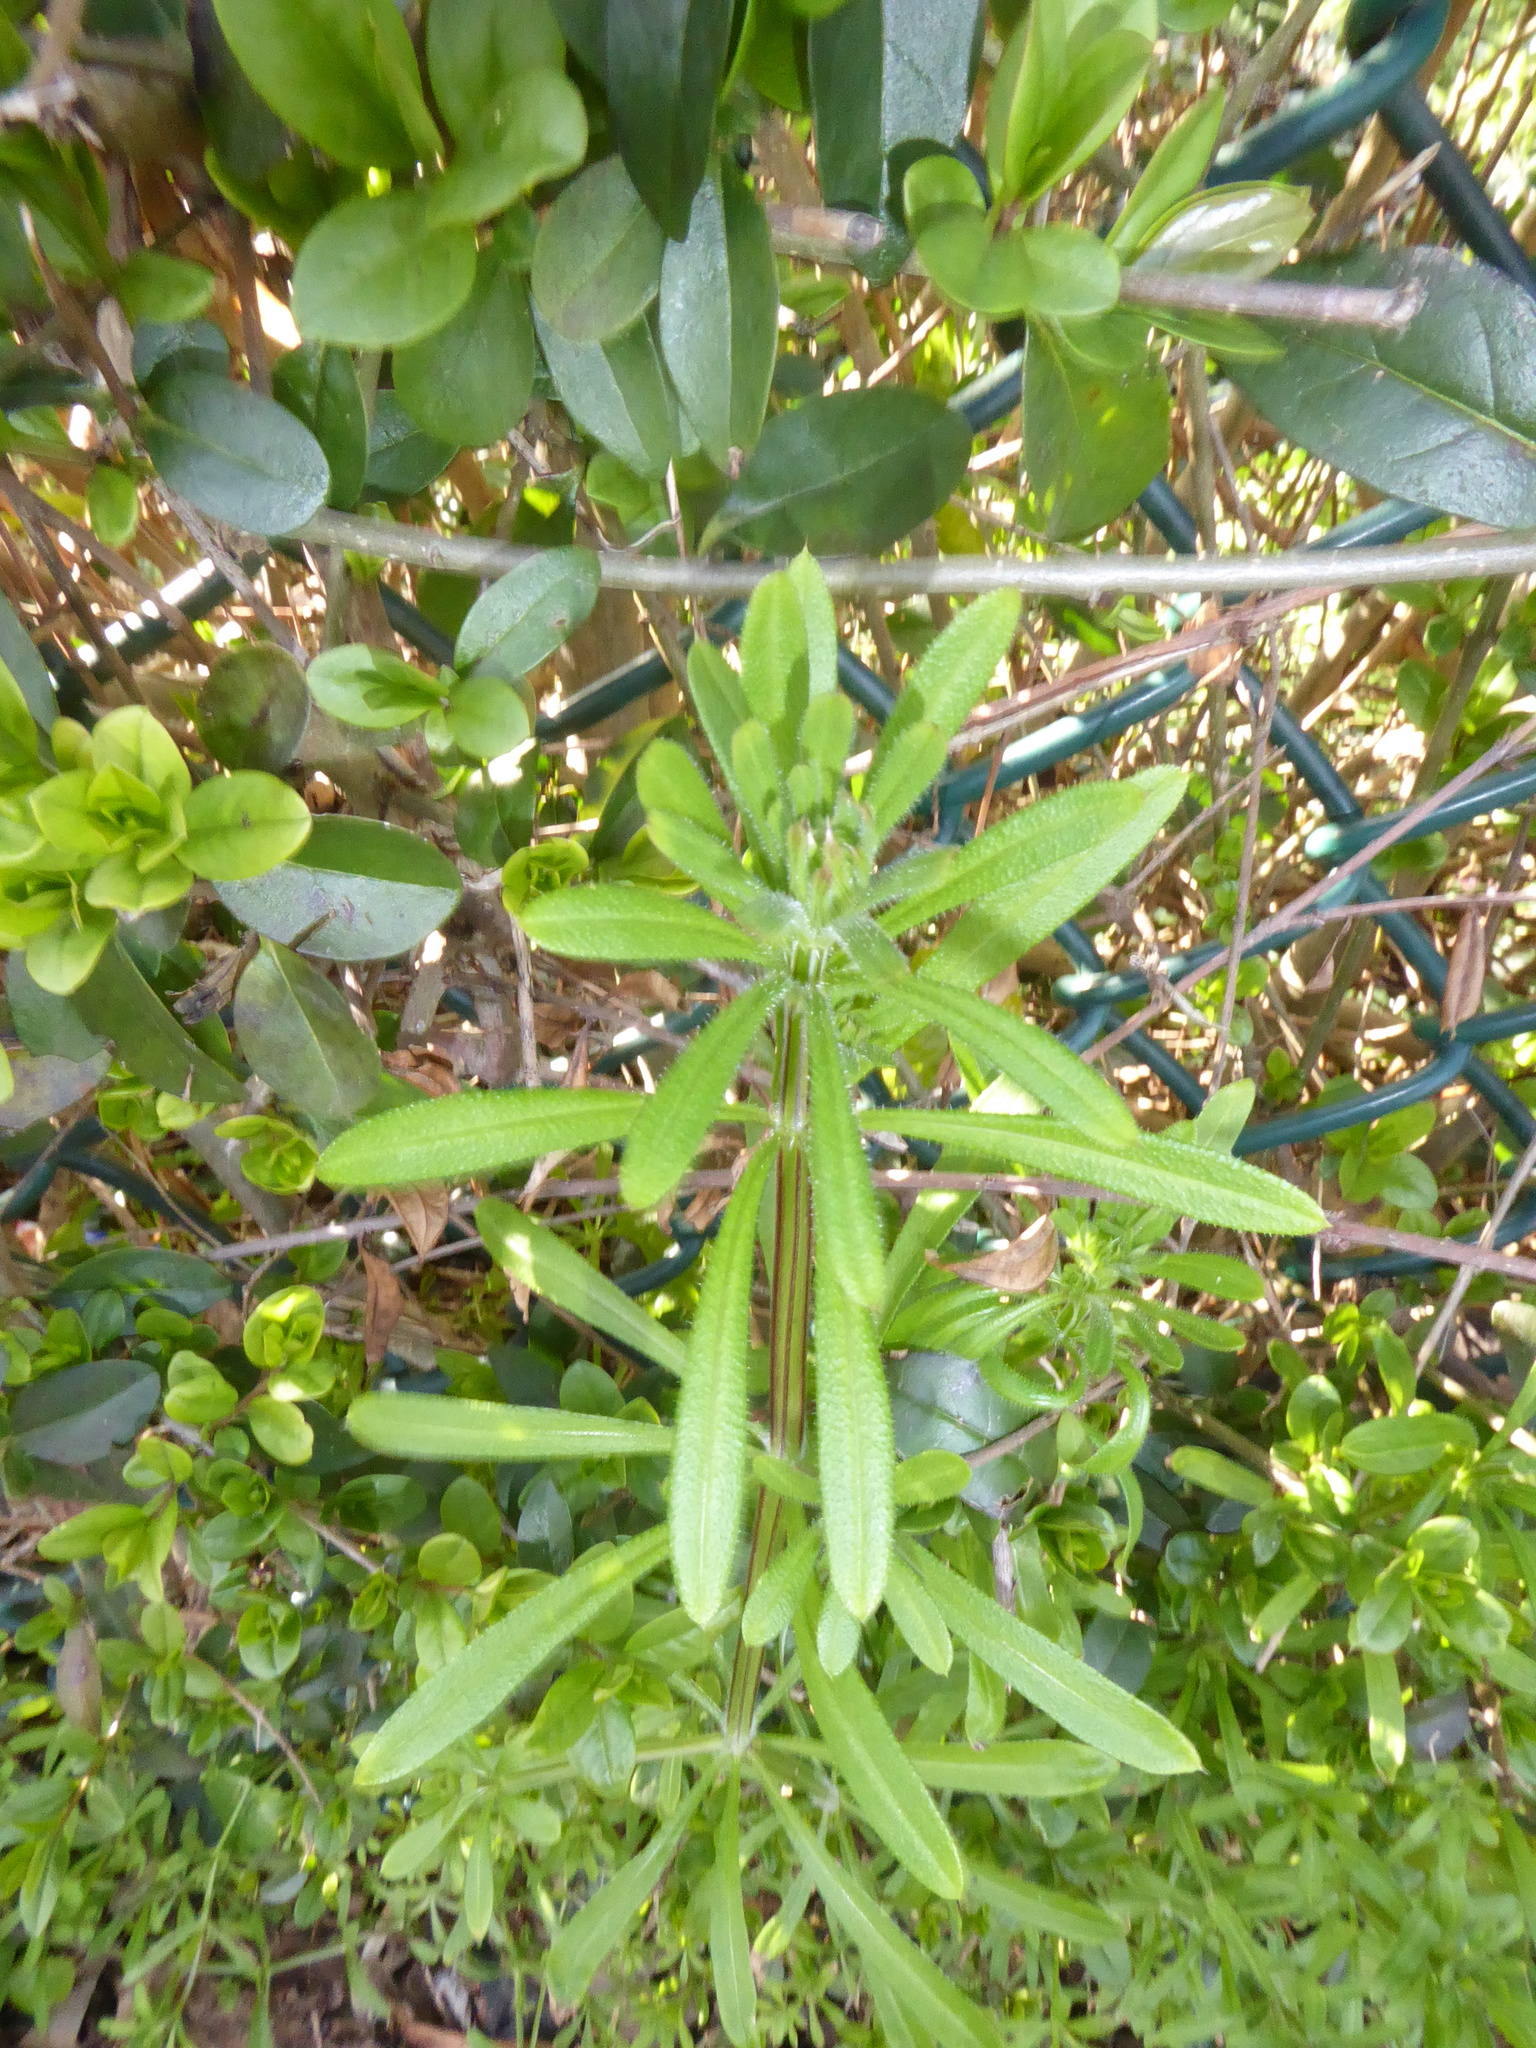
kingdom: Plantae
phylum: Tracheophyta
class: Magnoliopsida
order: Gentianales
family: Rubiaceae
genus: Galium
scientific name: Galium aparine
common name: Cleavers
